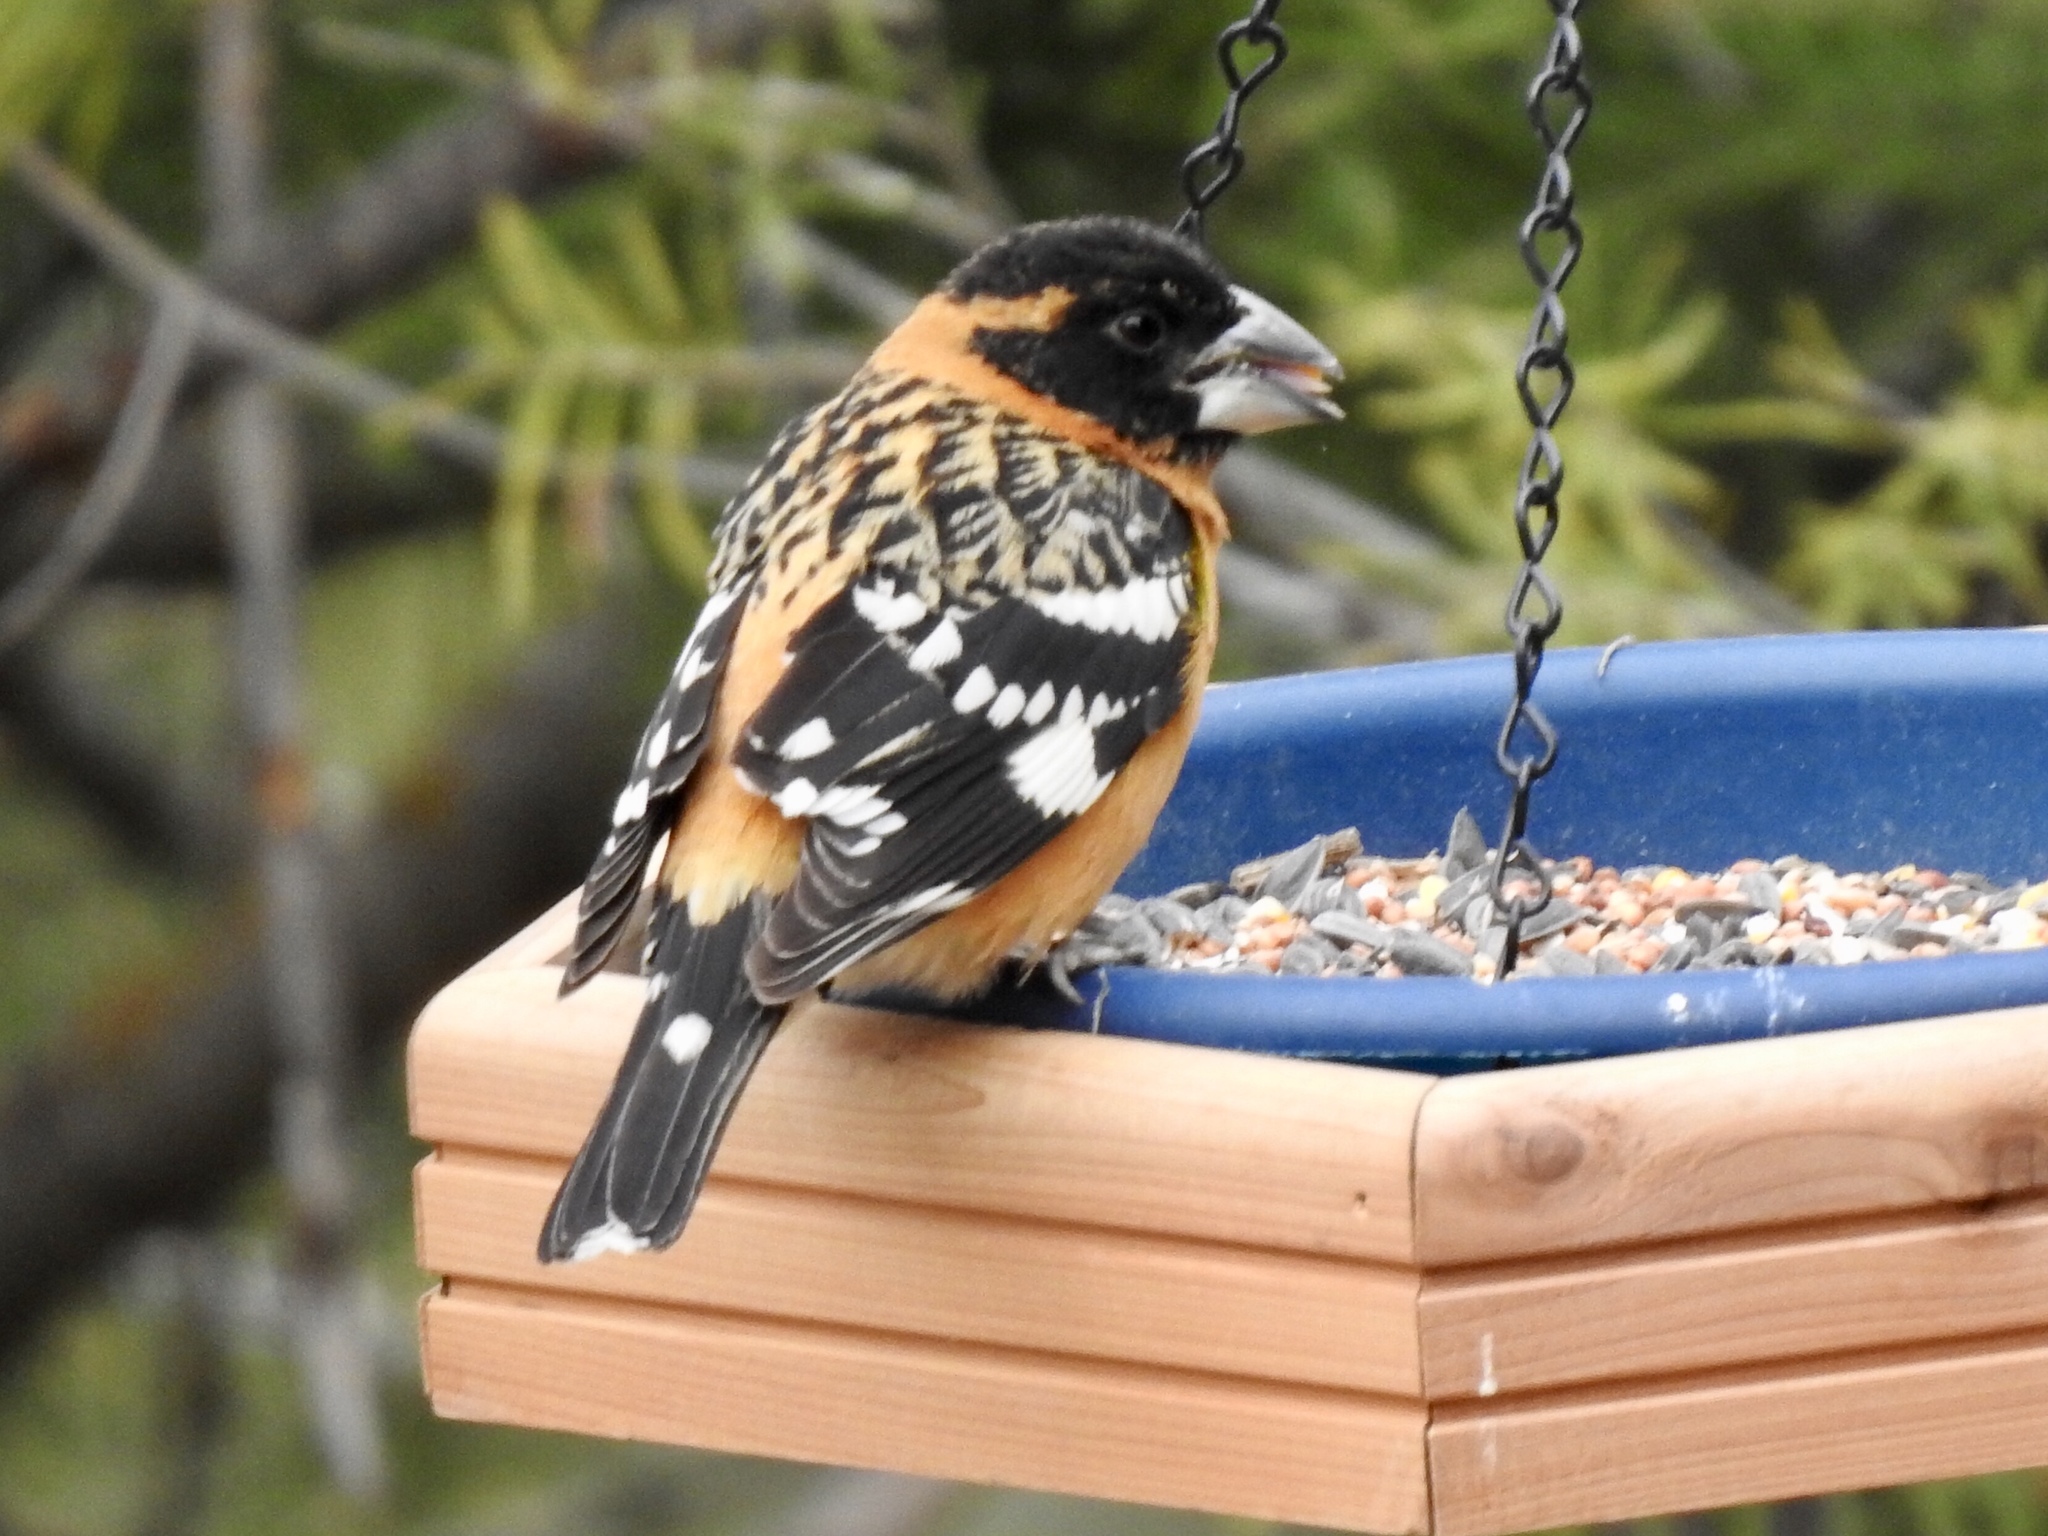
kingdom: Animalia
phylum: Chordata
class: Aves
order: Passeriformes
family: Cardinalidae
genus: Pheucticus
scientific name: Pheucticus melanocephalus
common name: Black-headed grosbeak
